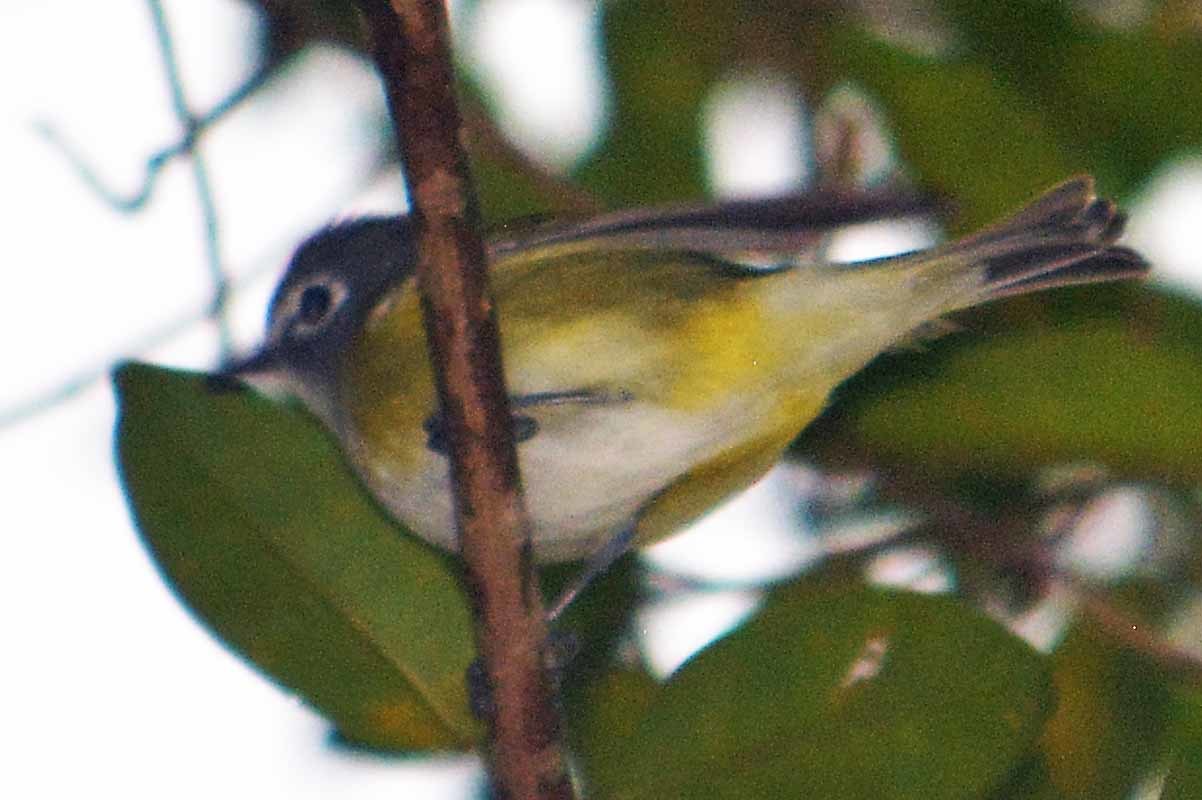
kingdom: Animalia
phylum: Chordata
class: Aves
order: Passeriformes
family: Vireonidae
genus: Vireo
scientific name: Vireo solitarius
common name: Blue-headed vireo
